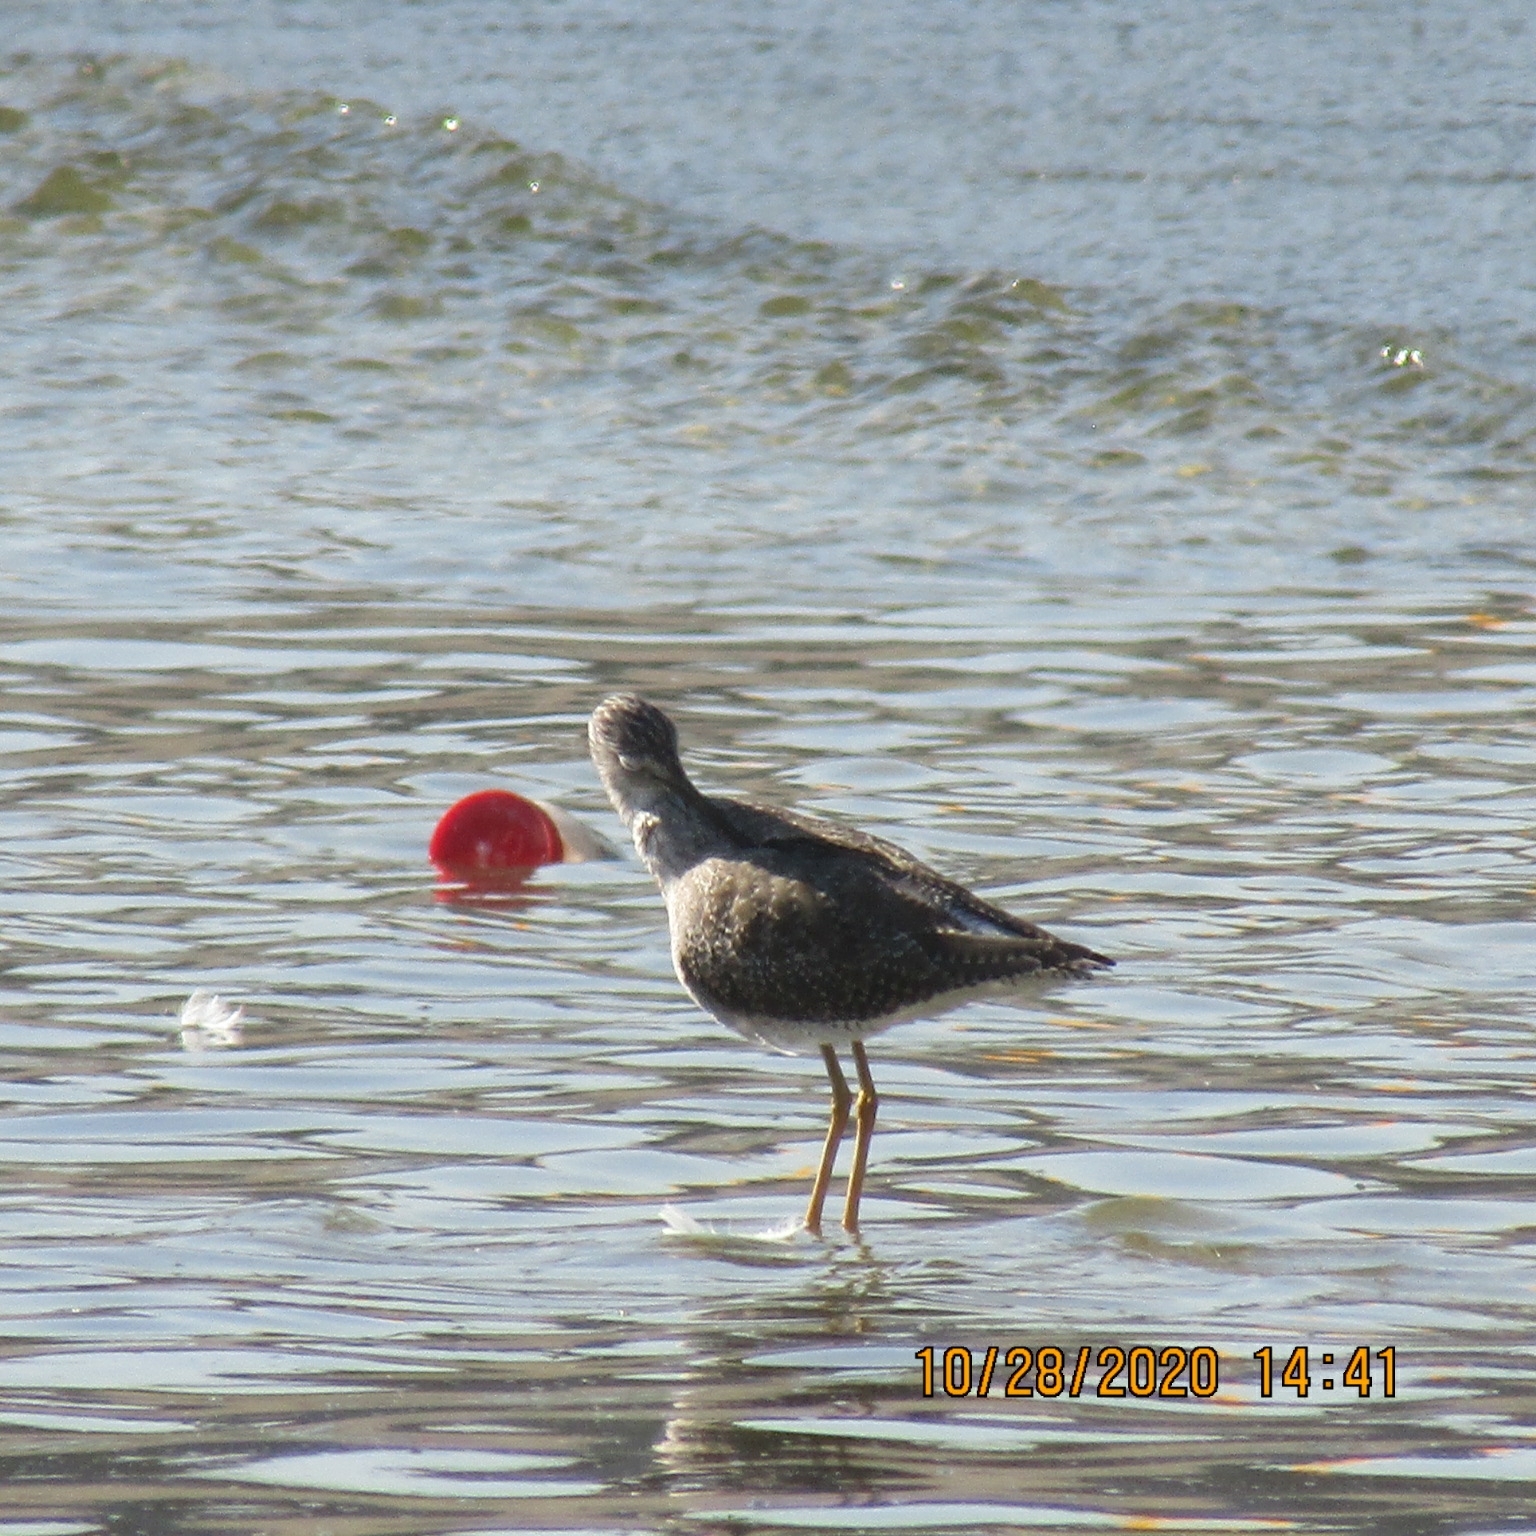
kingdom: Animalia
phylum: Chordata
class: Aves
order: Charadriiformes
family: Scolopacidae
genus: Tringa
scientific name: Tringa melanoleuca
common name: Greater yellowlegs
